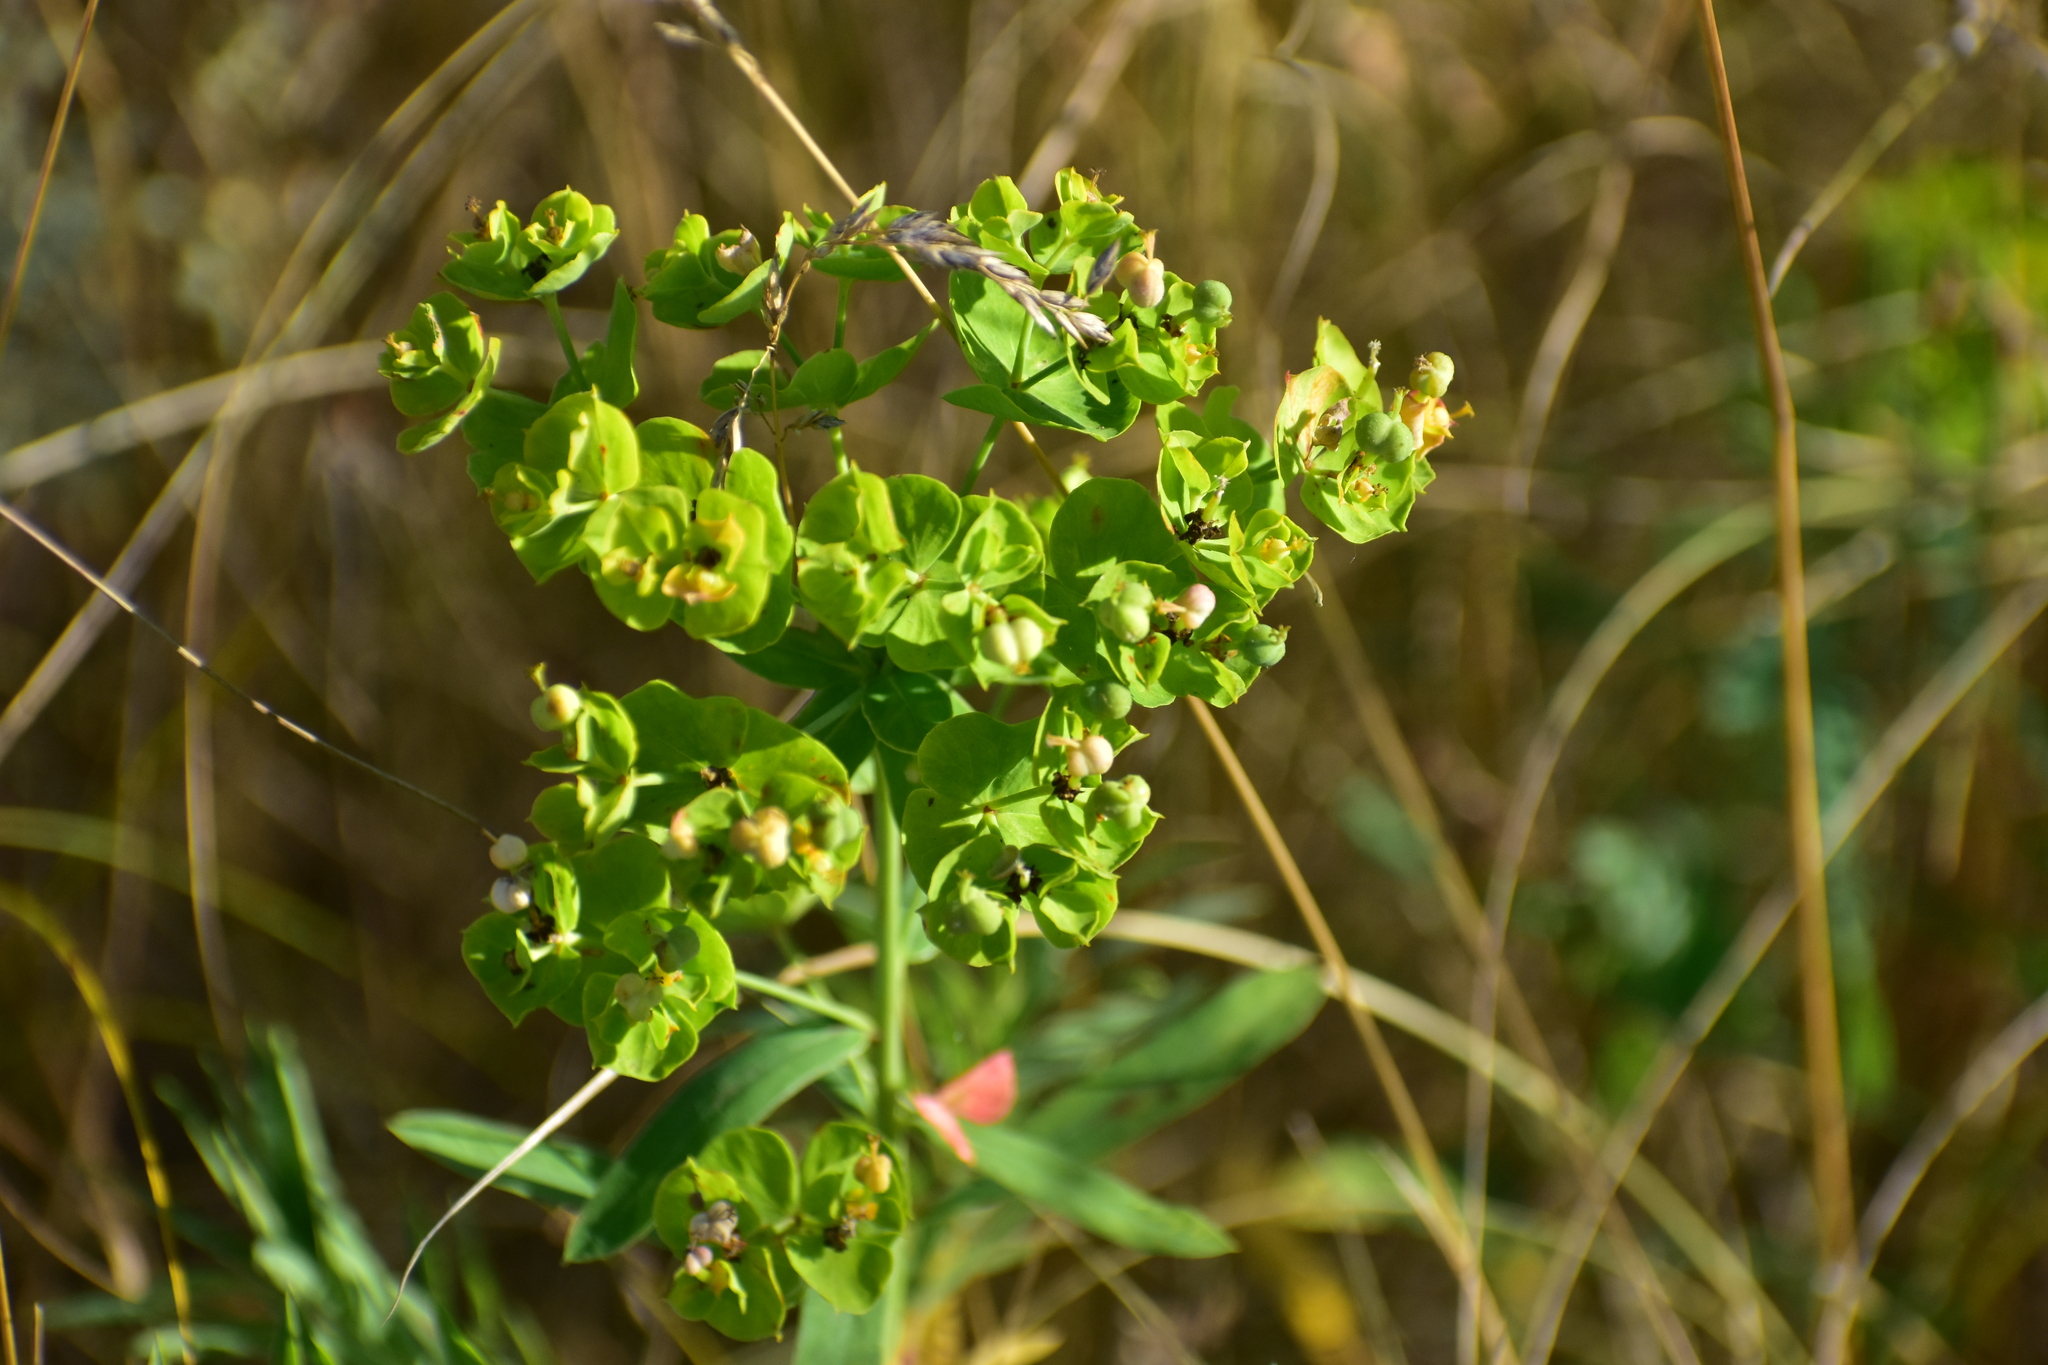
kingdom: Plantae
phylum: Tracheophyta
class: Magnoliopsida
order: Malpighiales
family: Euphorbiaceae
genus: Euphorbia
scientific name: Euphorbia virgata
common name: Leafy spurge
